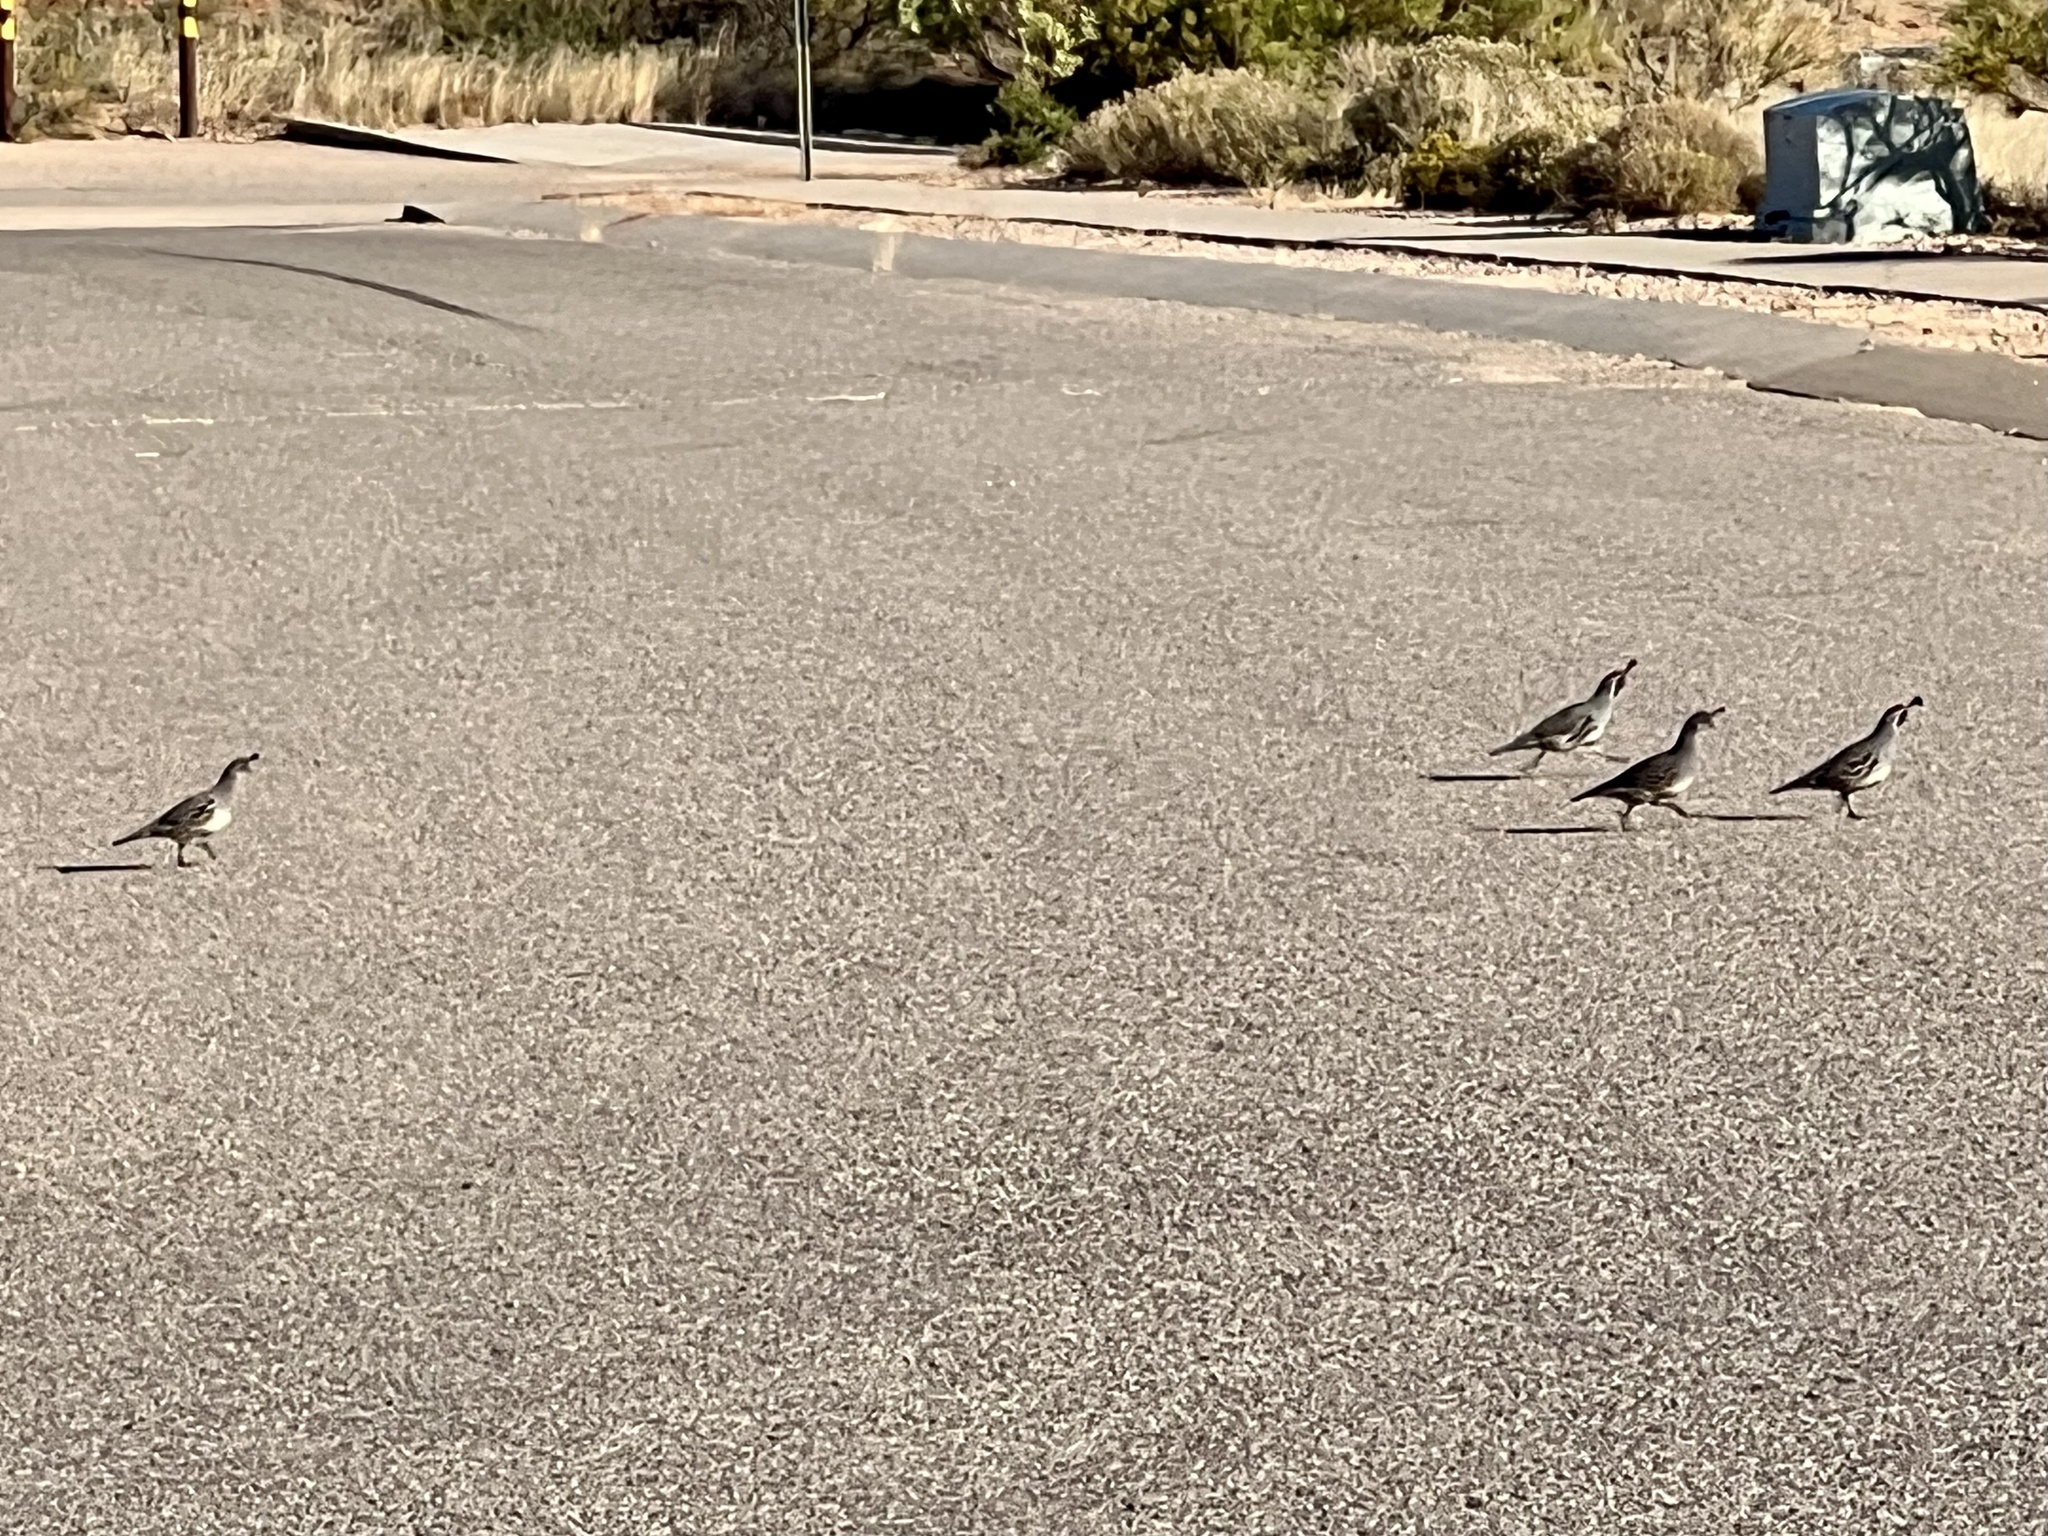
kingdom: Animalia
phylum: Chordata
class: Aves
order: Galliformes
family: Odontophoridae
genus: Callipepla
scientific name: Callipepla gambelii
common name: Gambel's quail
